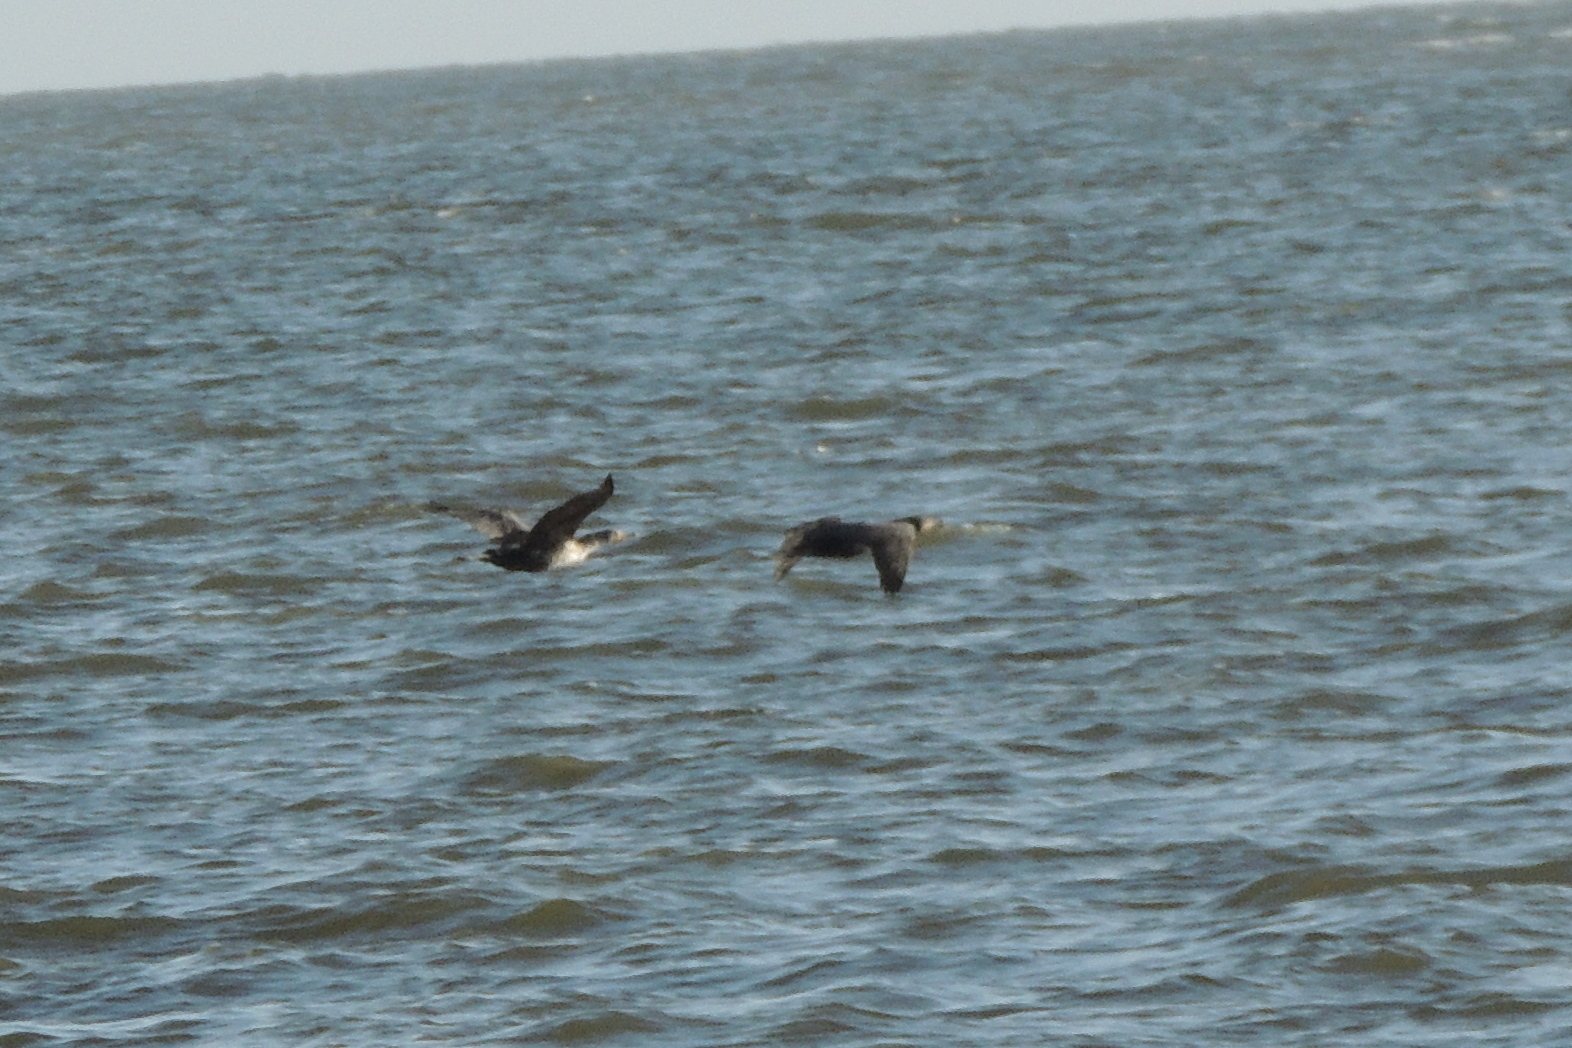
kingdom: Animalia
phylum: Chordata
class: Aves
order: Suliformes
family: Phalacrocoracidae
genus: Phalacrocorax
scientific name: Phalacrocorax auritus
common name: Double-crested cormorant
